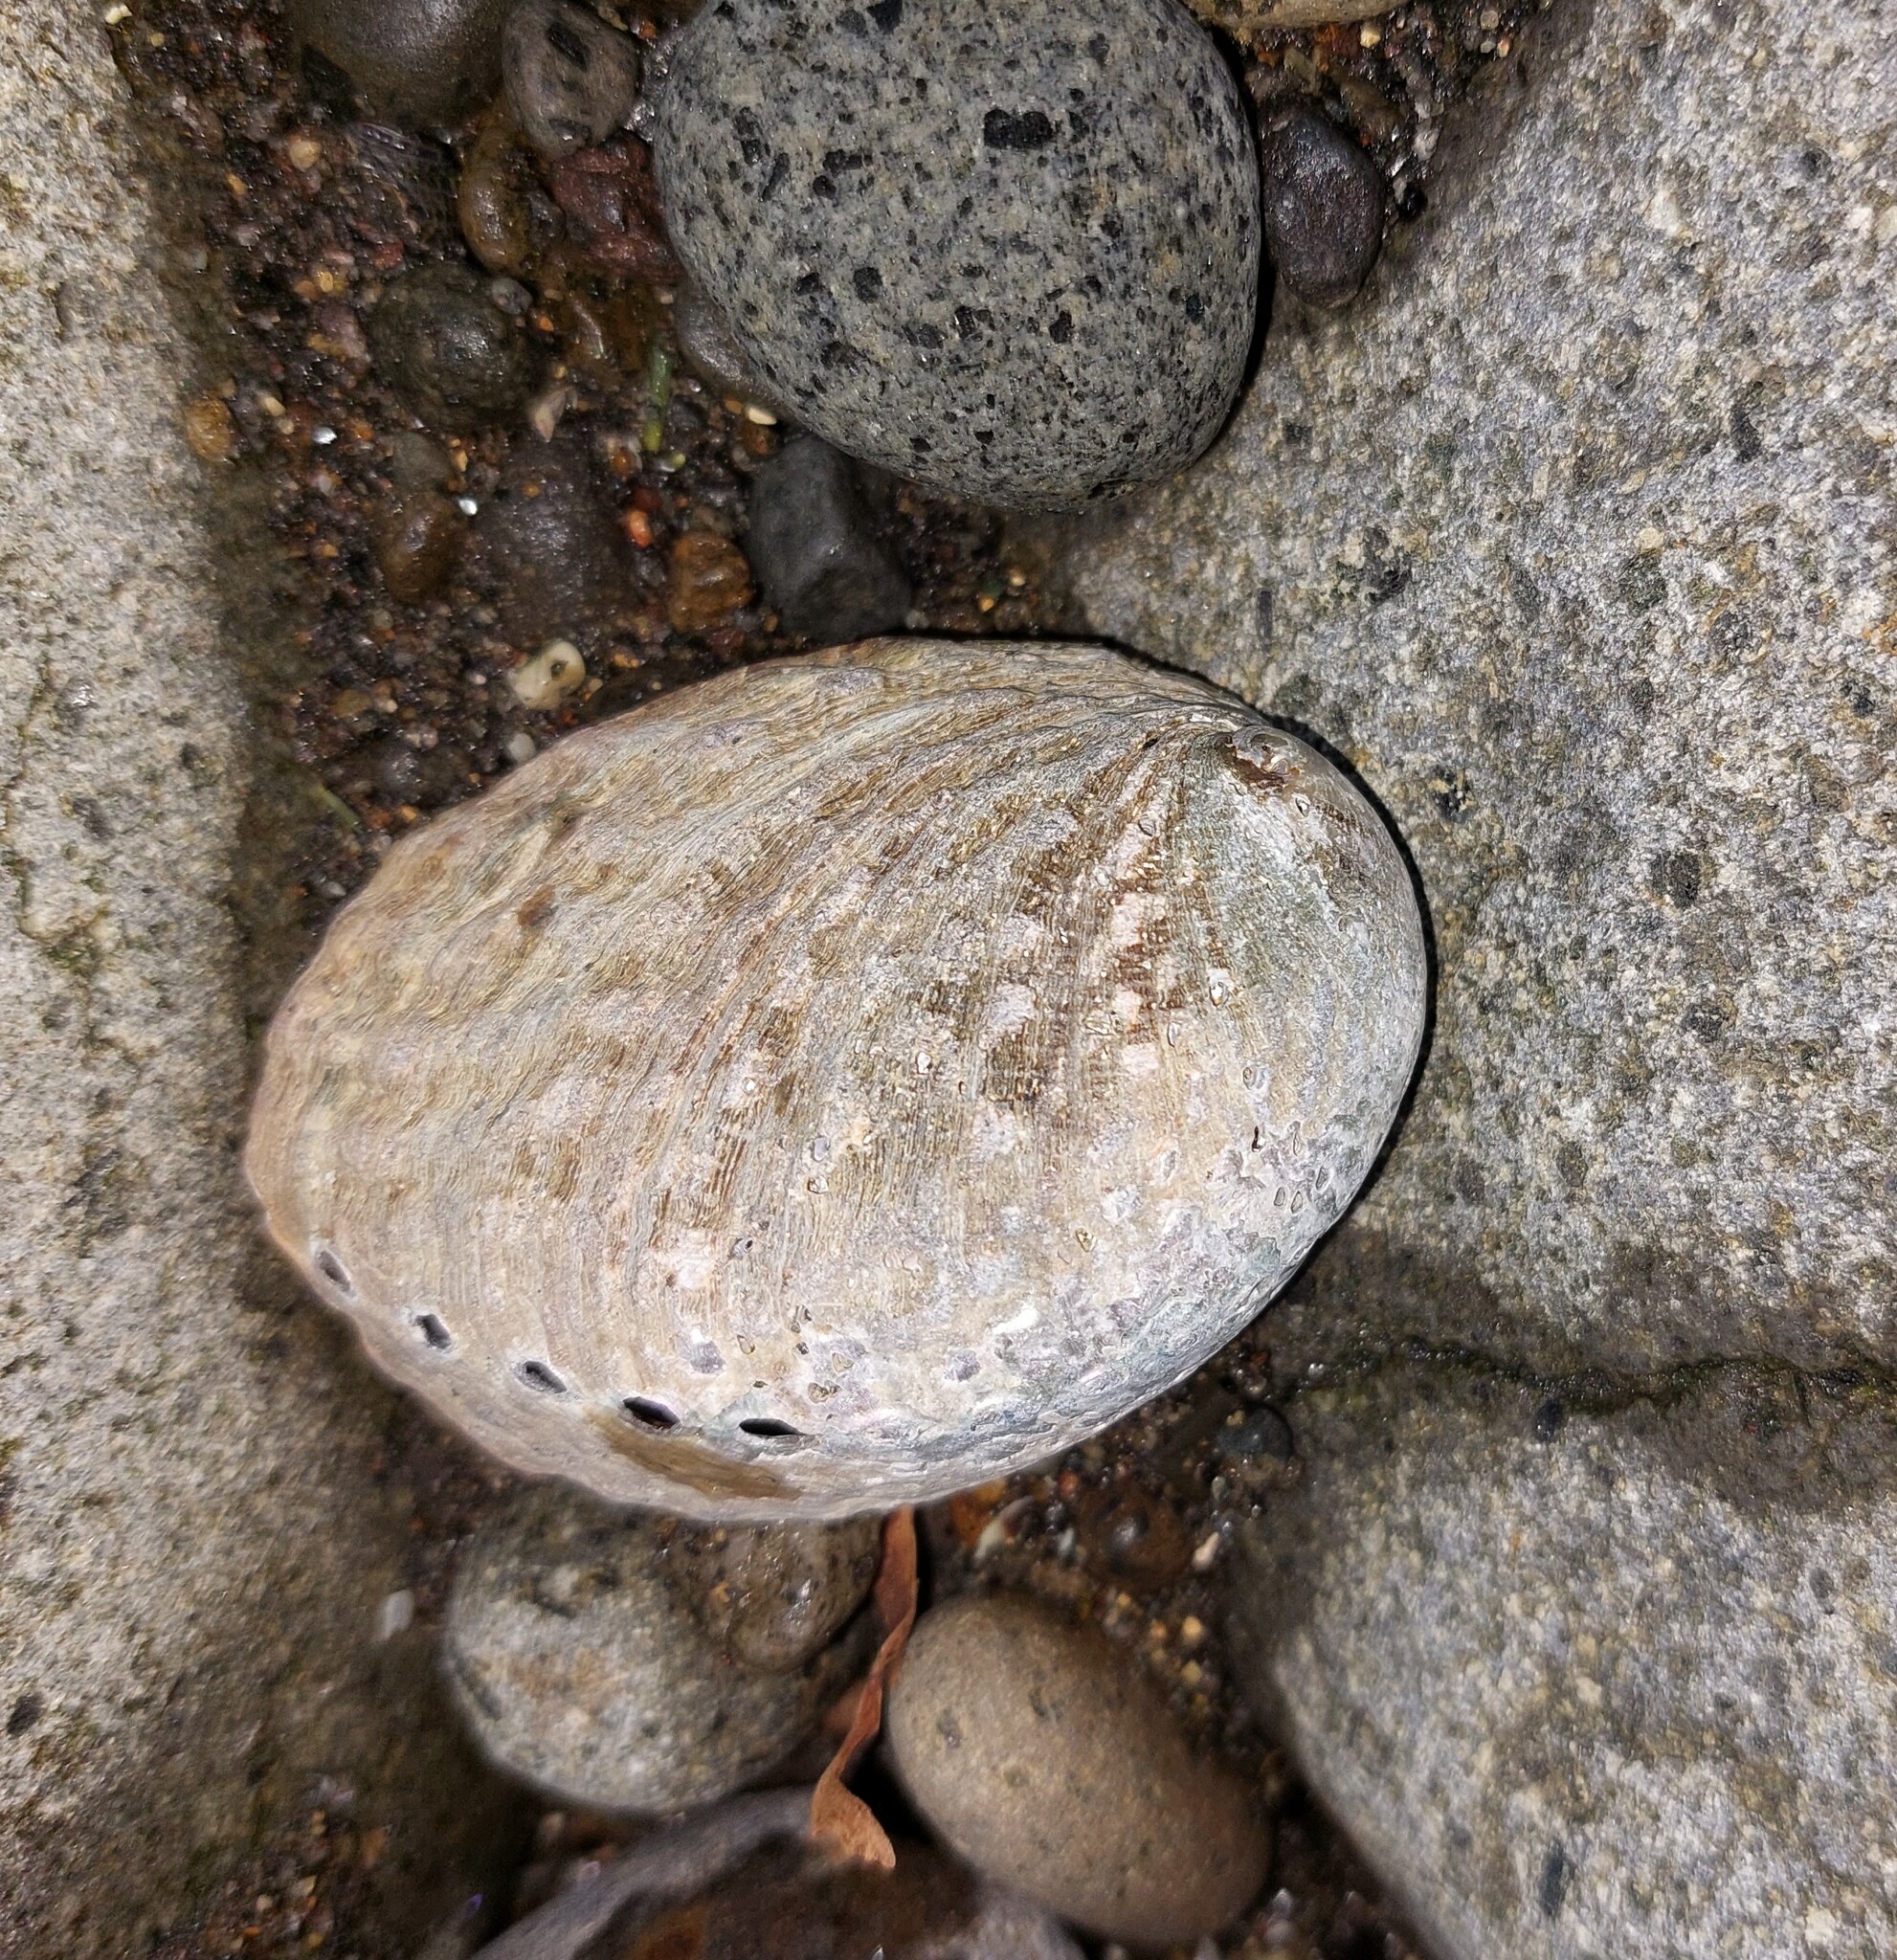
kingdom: Animalia
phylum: Mollusca
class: Gastropoda
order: Lepetellida
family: Haliotidae
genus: Haliotis
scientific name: Haliotis iris
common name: Abalone
